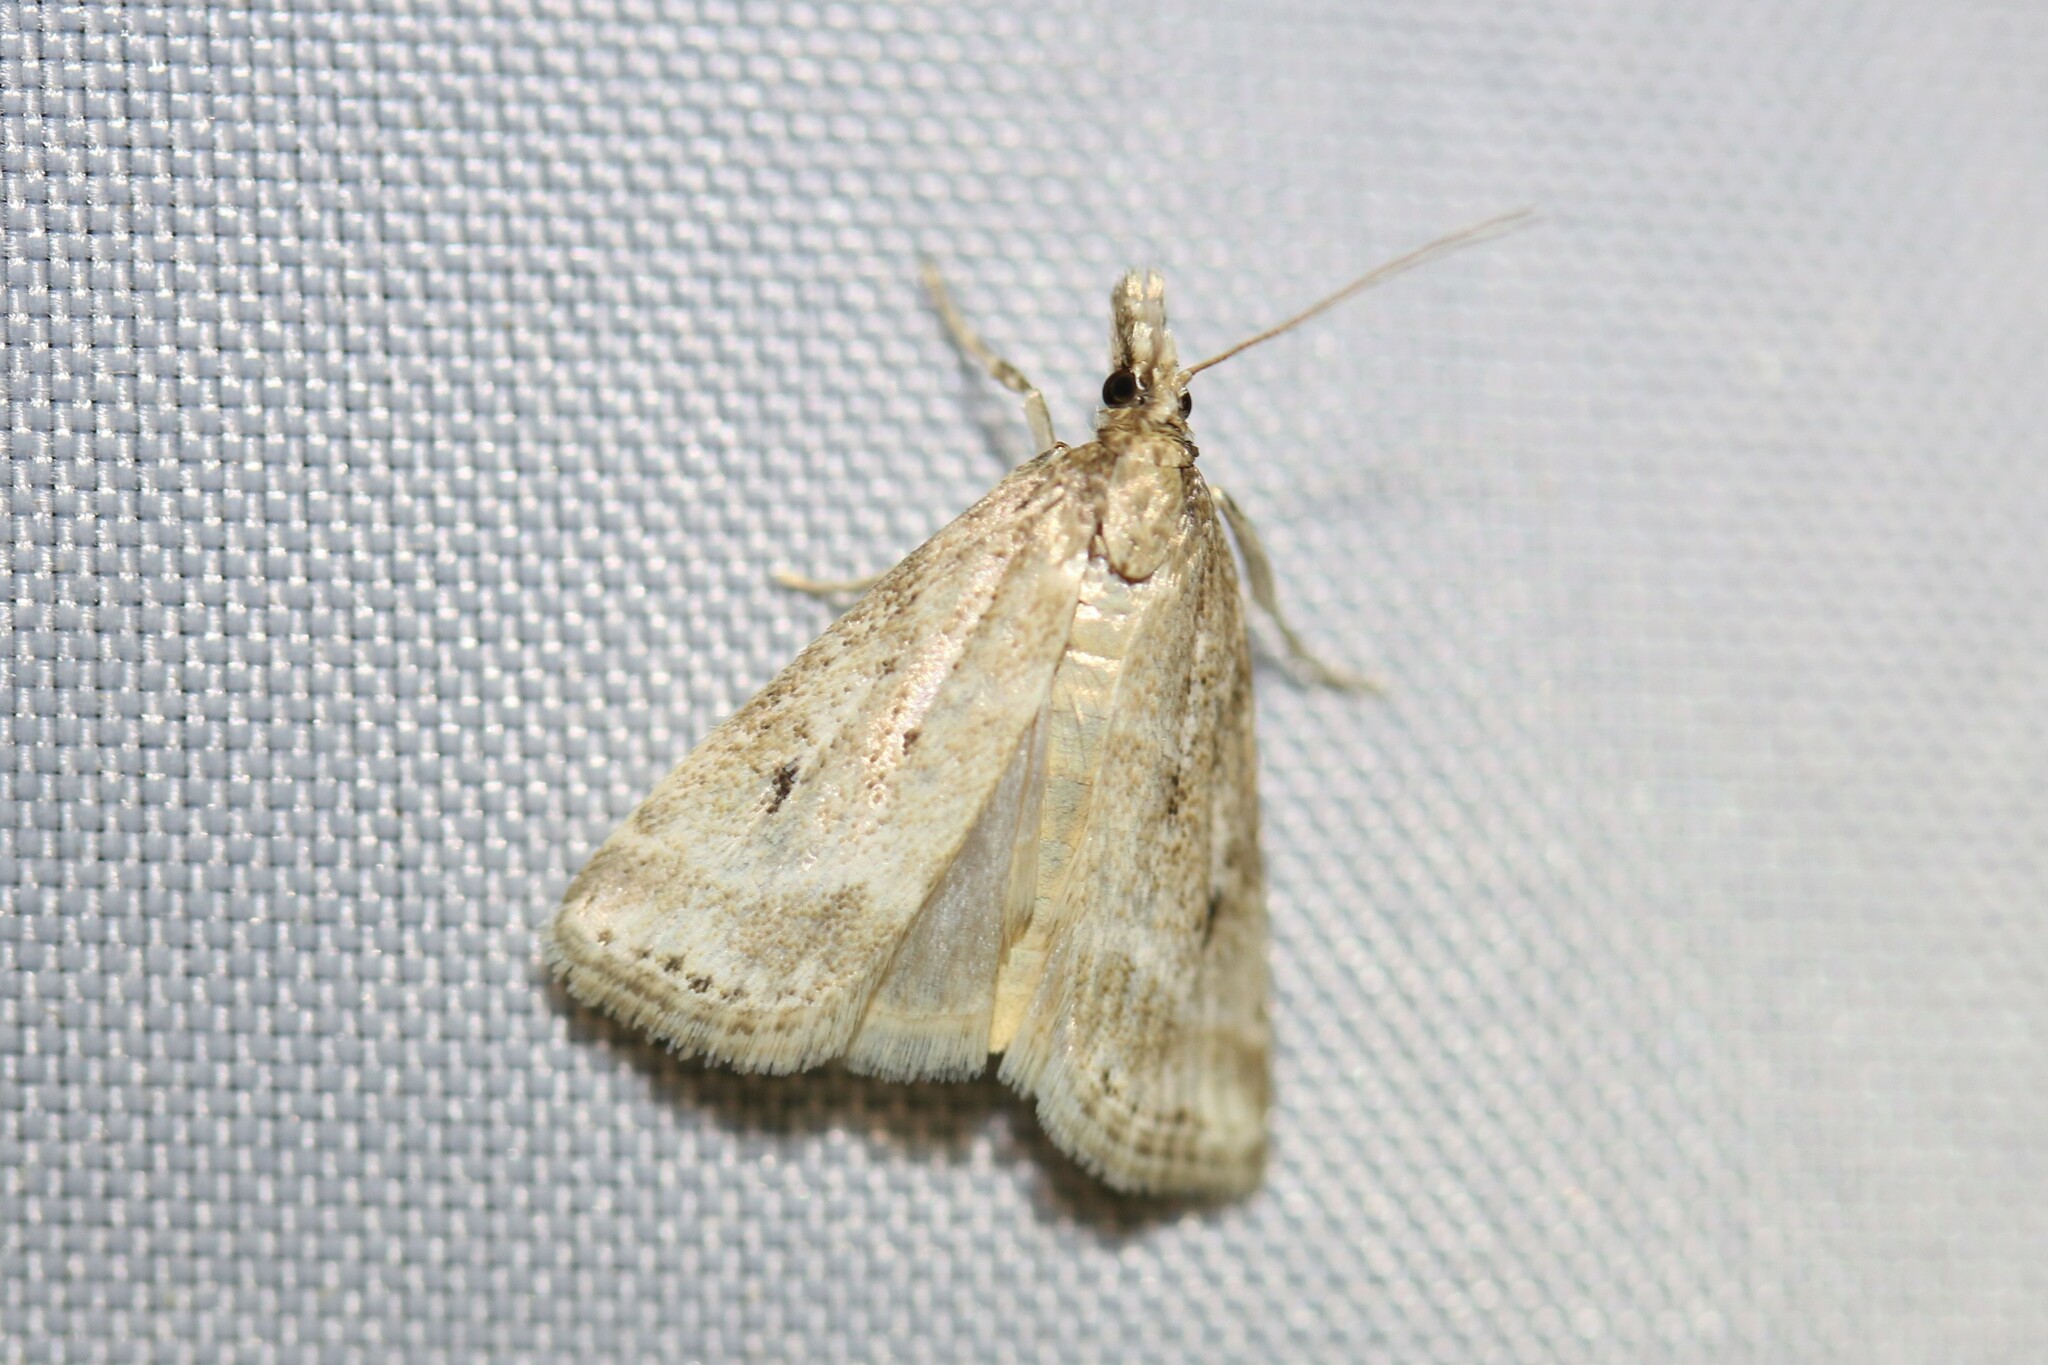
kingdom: Animalia
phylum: Arthropoda
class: Insecta
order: Lepidoptera
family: Crambidae
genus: Eudonia
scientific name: Eudonia truncicolella
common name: Ground-moss grey
